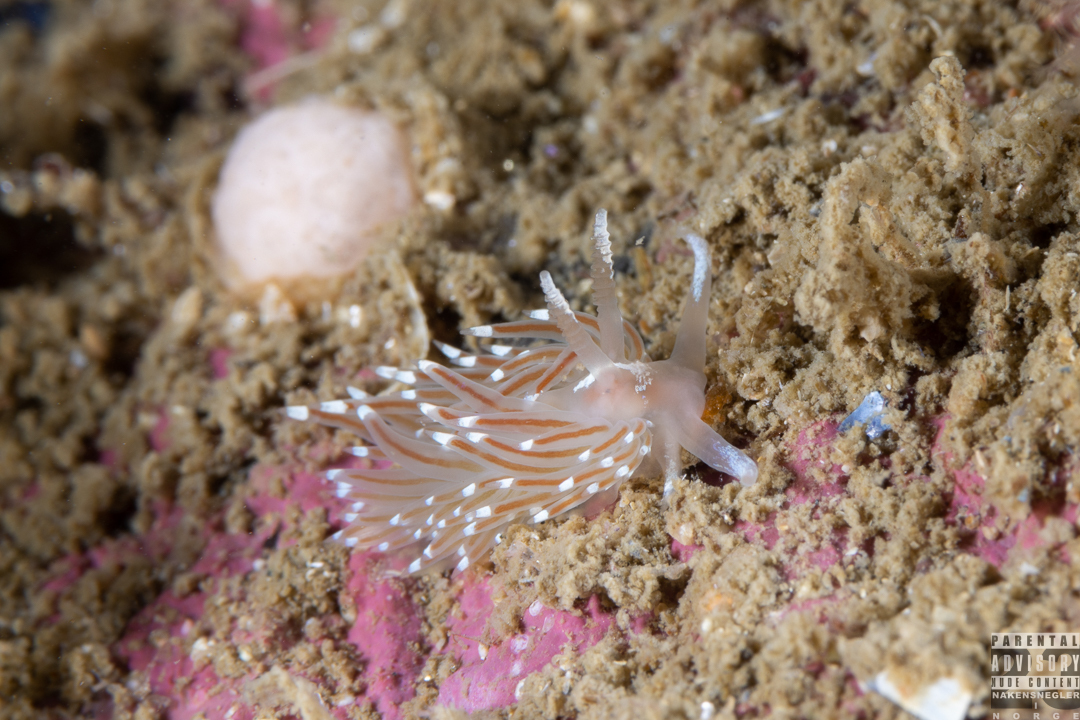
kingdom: Animalia
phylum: Mollusca
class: Gastropoda
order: Nudibranchia
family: Facelinidae
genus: Facelina
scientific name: Facelina bostoniensis
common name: Boston facelina
